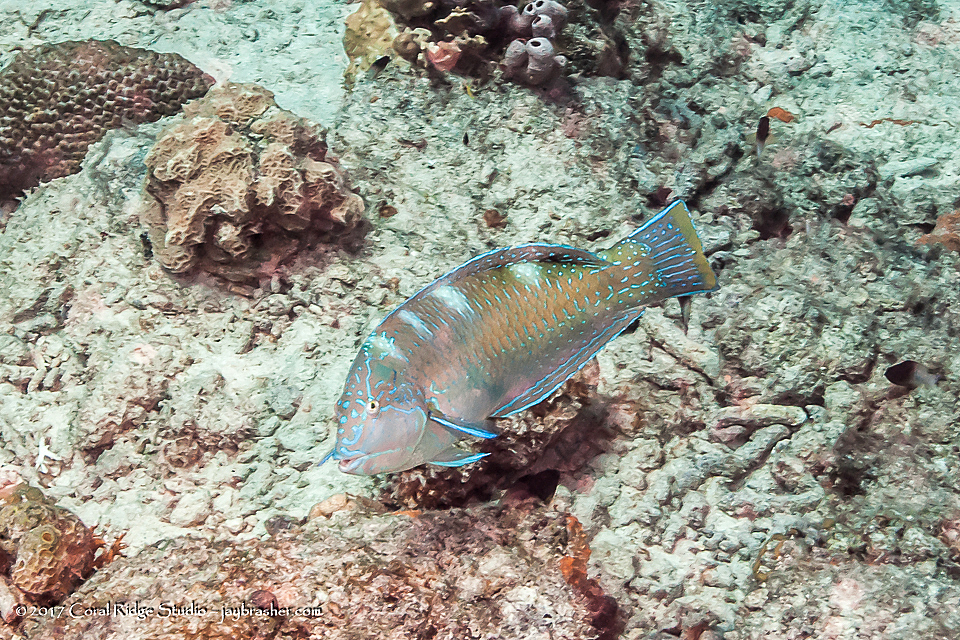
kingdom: Animalia
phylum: Chordata
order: Perciformes
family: Labridae
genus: Halichoeres
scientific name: Halichoeres radiatus
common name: Puddingwife
